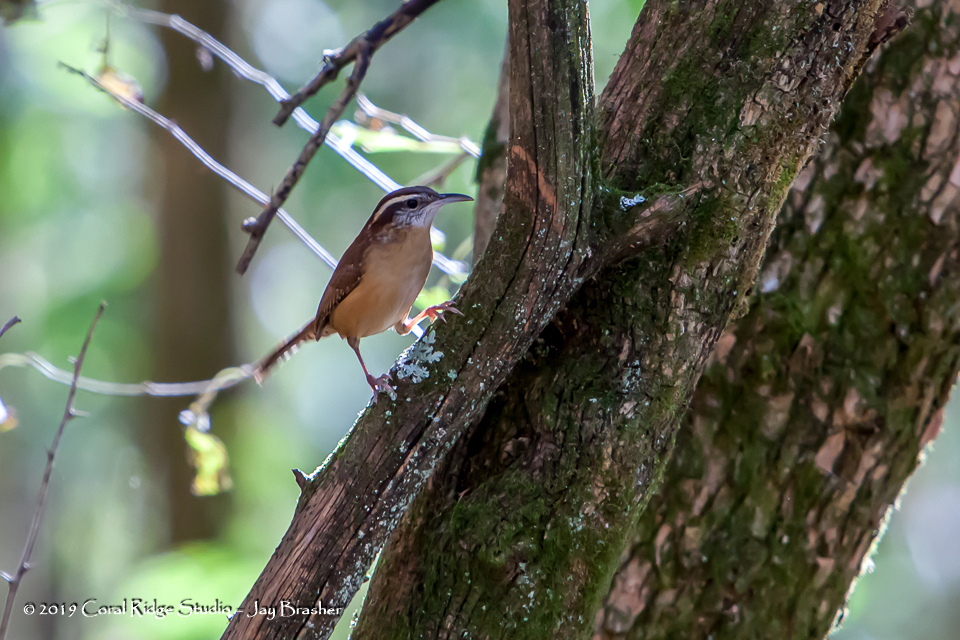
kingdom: Animalia
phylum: Chordata
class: Aves
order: Passeriformes
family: Troglodytidae
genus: Thryothorus
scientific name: Thryothorus ludovicianus
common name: Carolina wren
